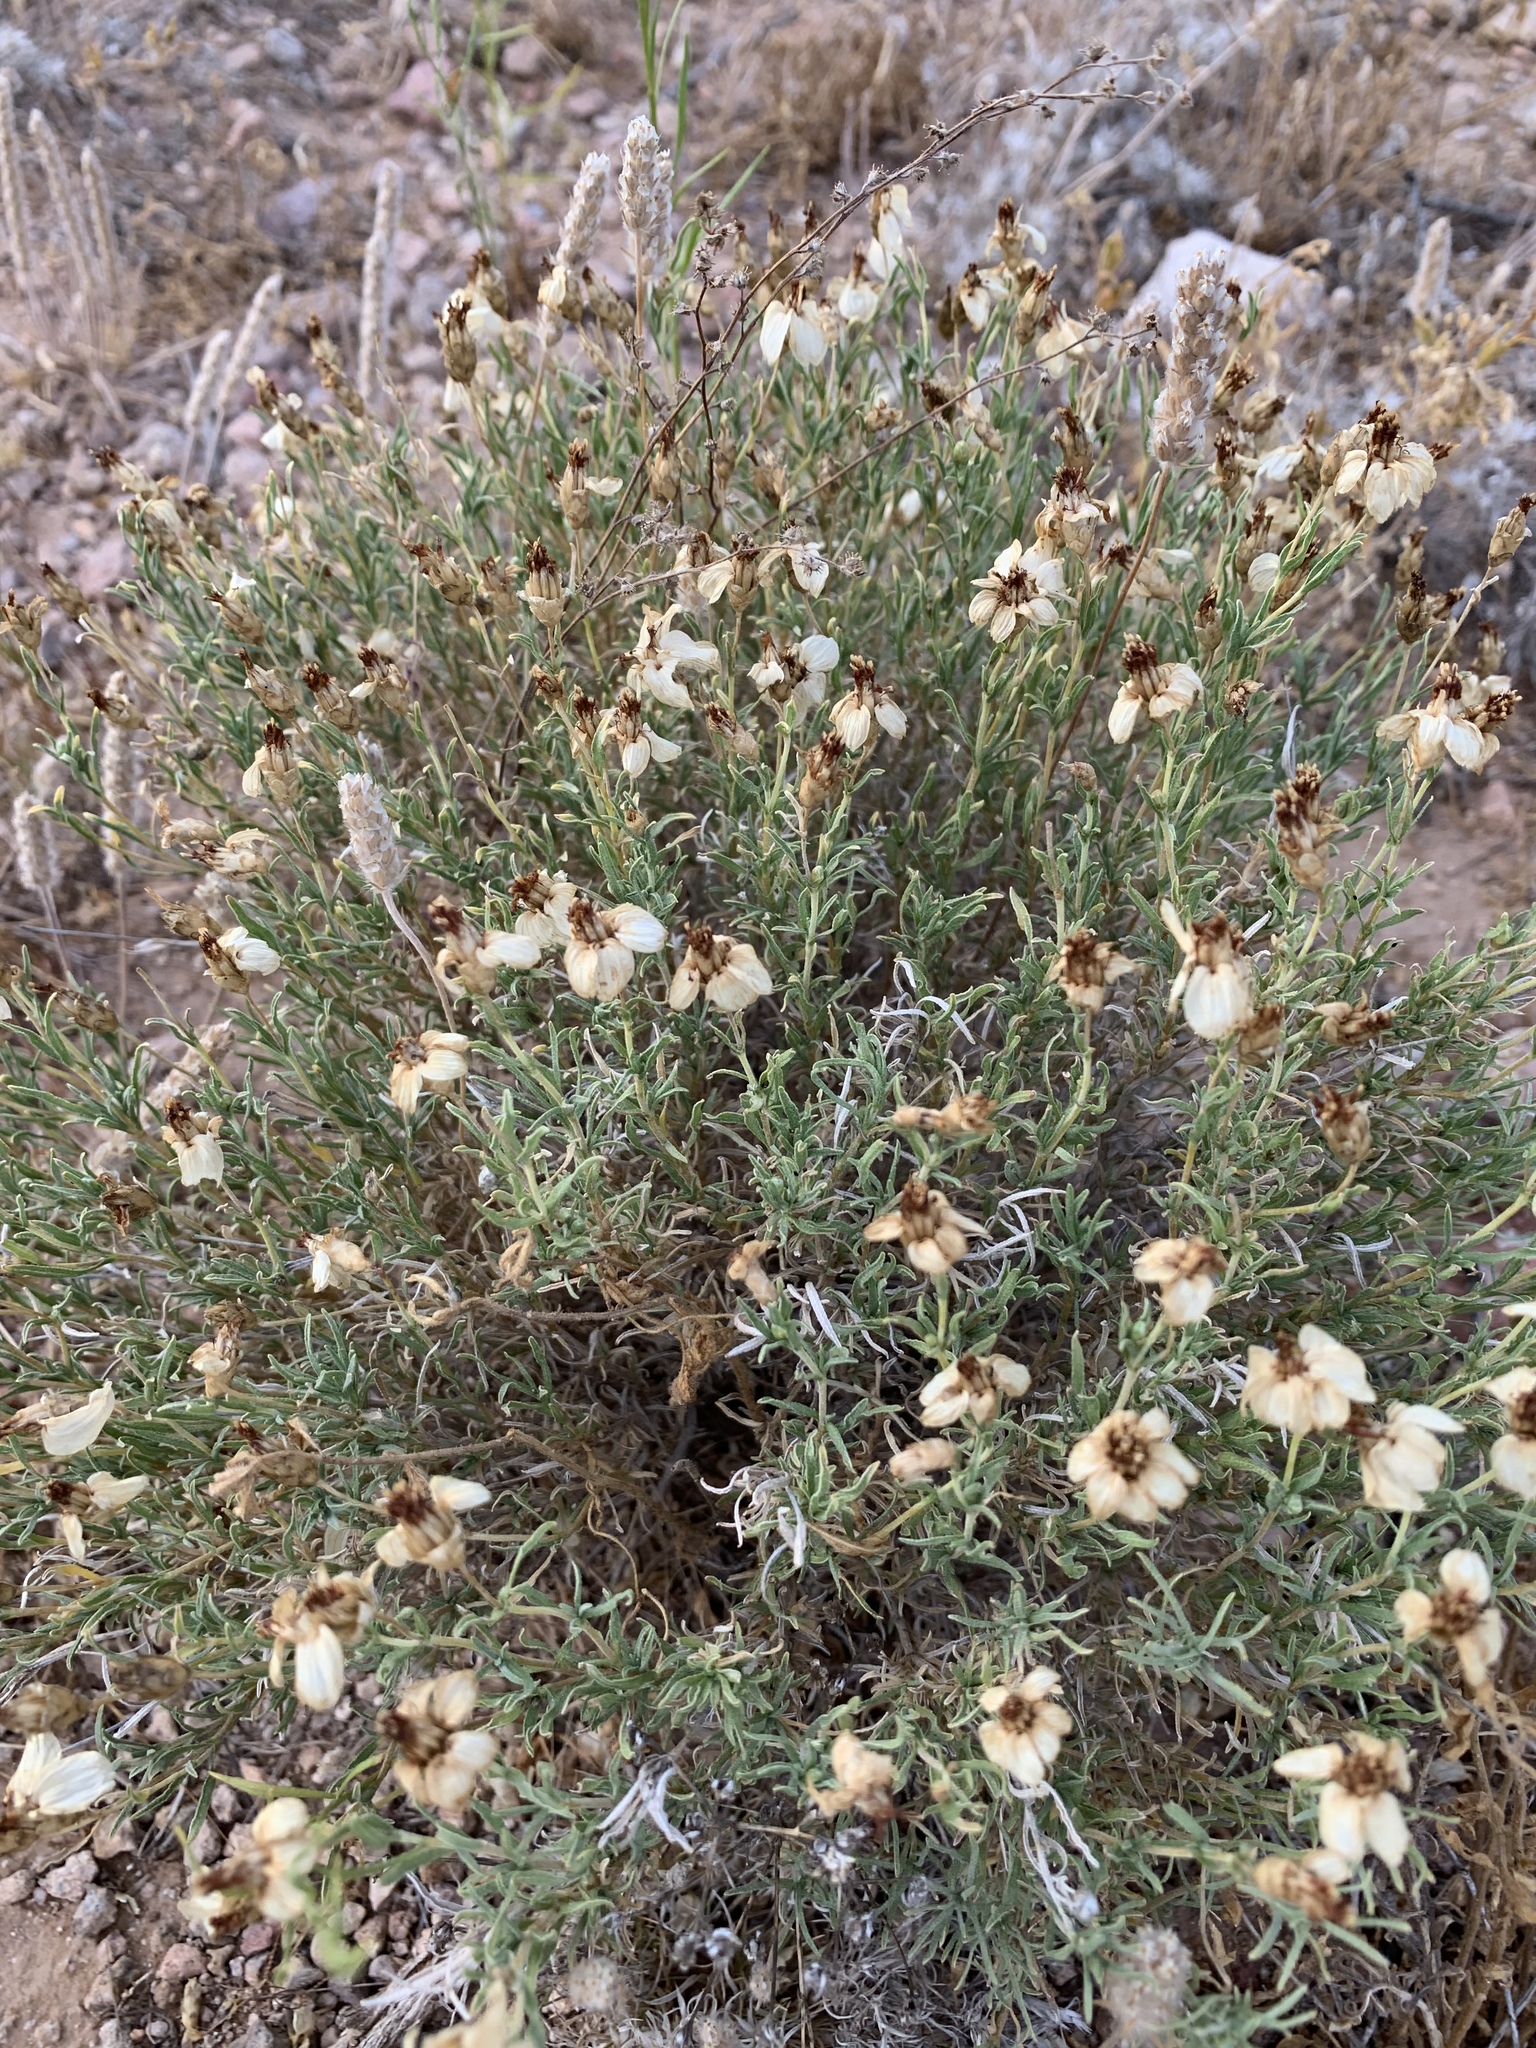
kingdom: Plantae
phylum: Tracheophyta
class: Magnoliopsida
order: Asterales
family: Asteraceae
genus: Zinnia
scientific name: Zinnia acerosa
